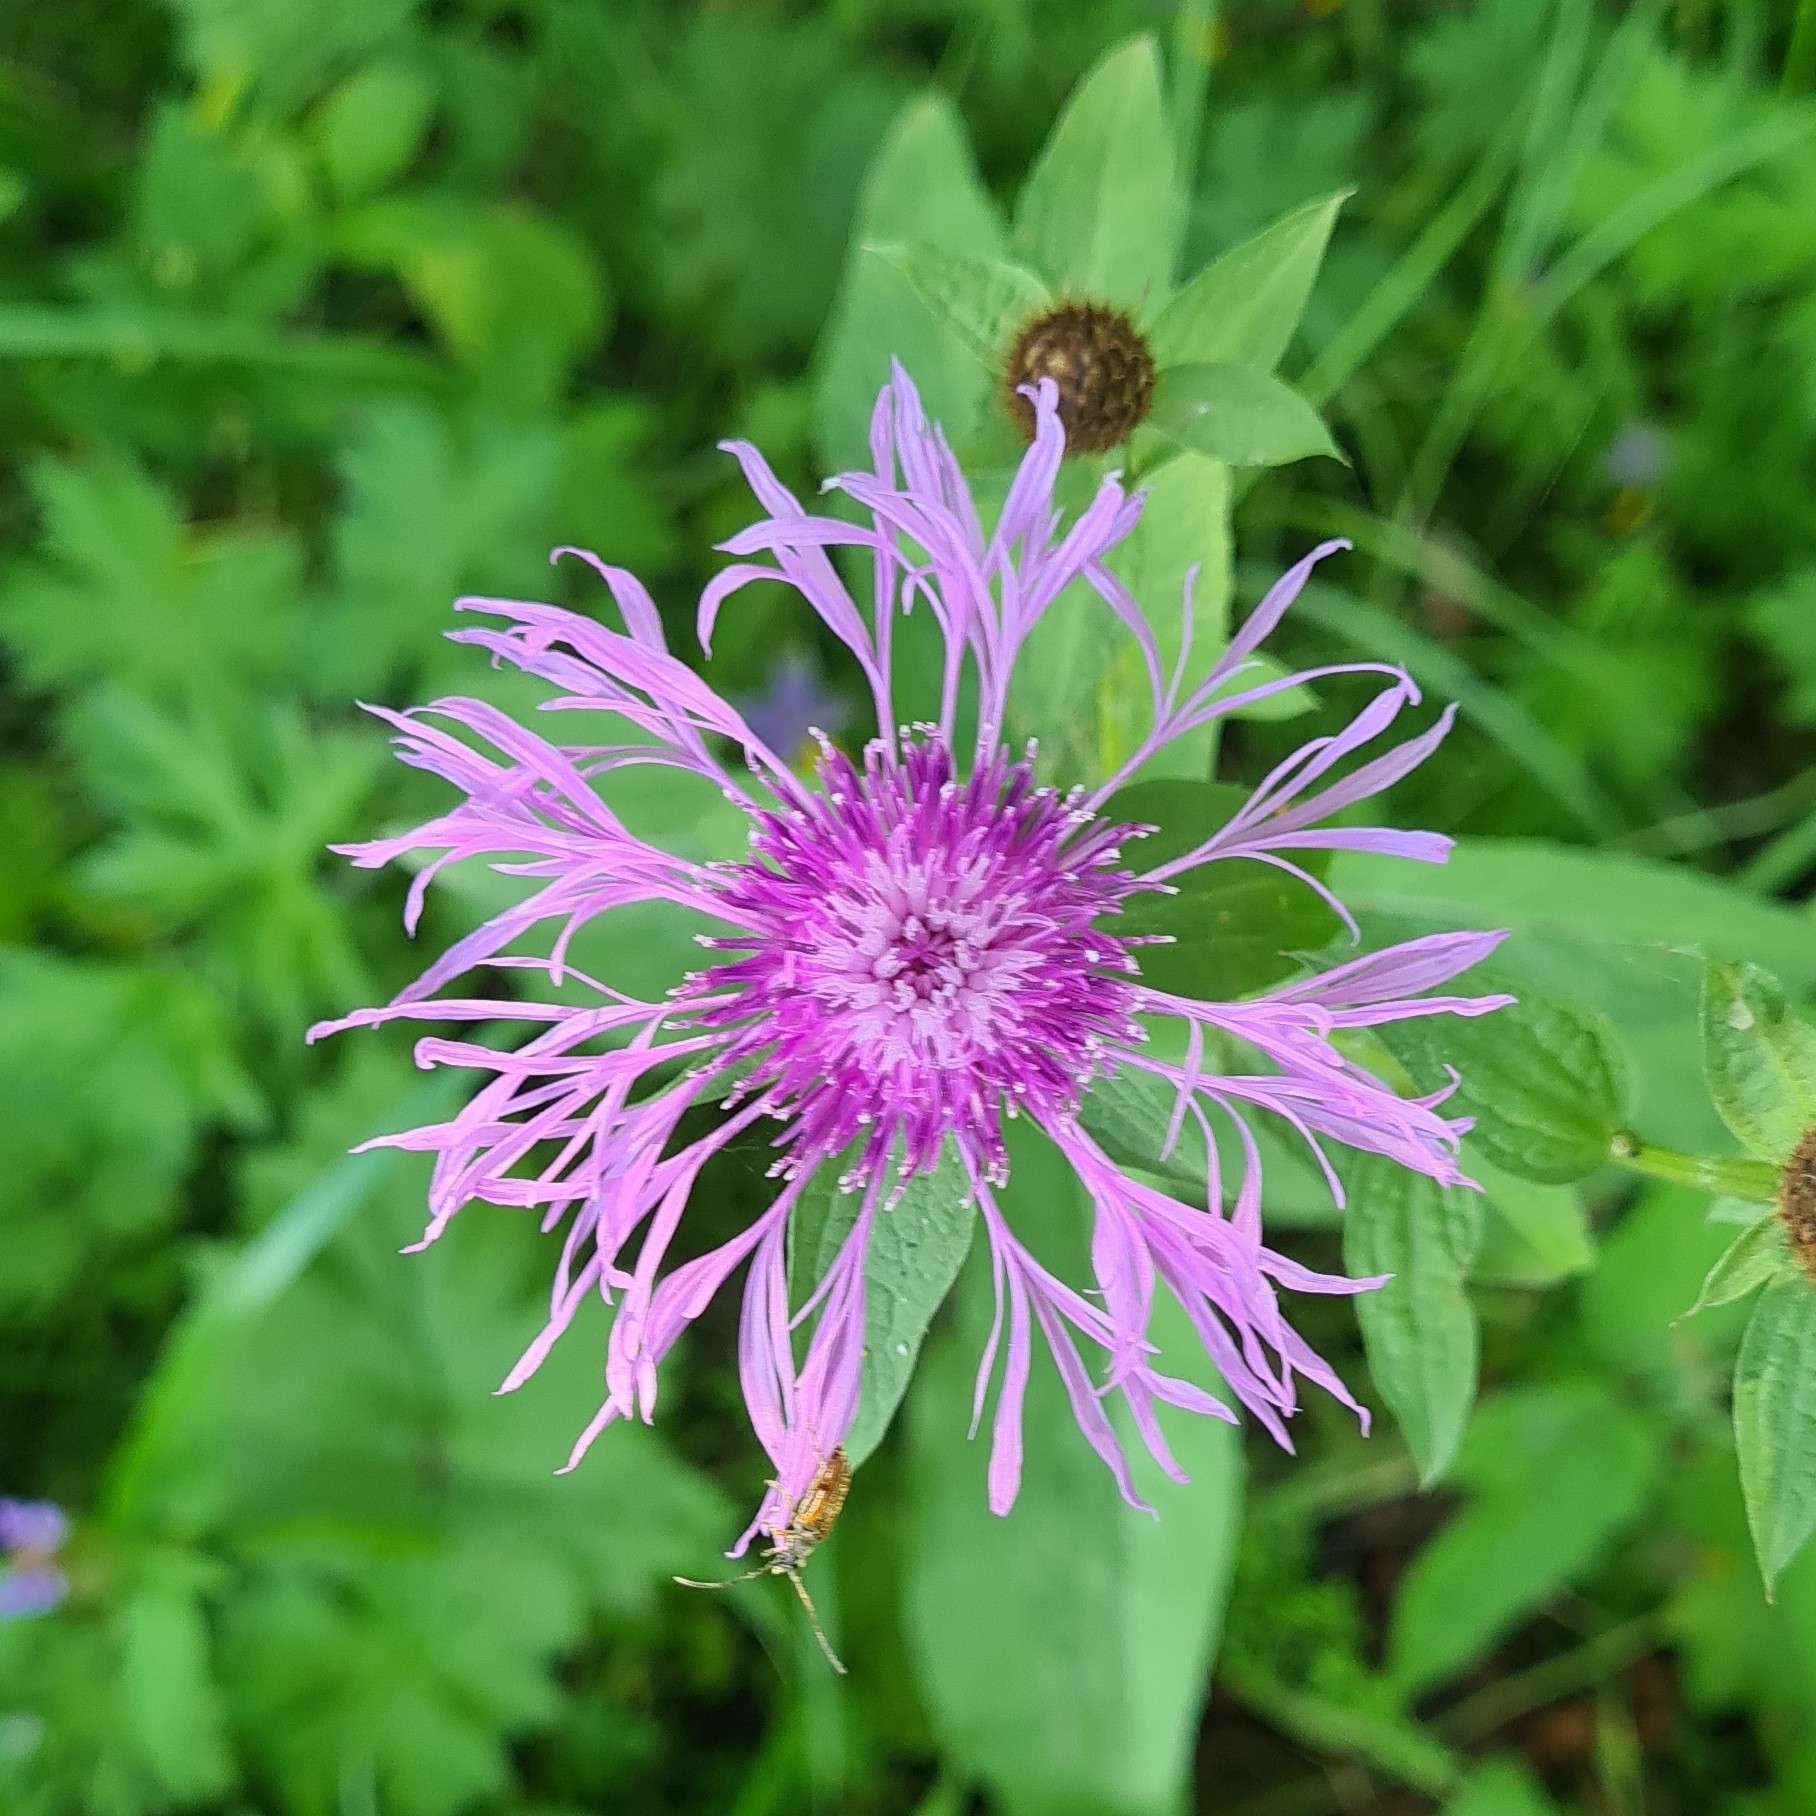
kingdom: Plantae
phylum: Tracheophyta
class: Magnoliopsida
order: Asterales
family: Asteraceae
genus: Centaurea
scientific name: Centaurea phrygia
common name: Wig knapweed
